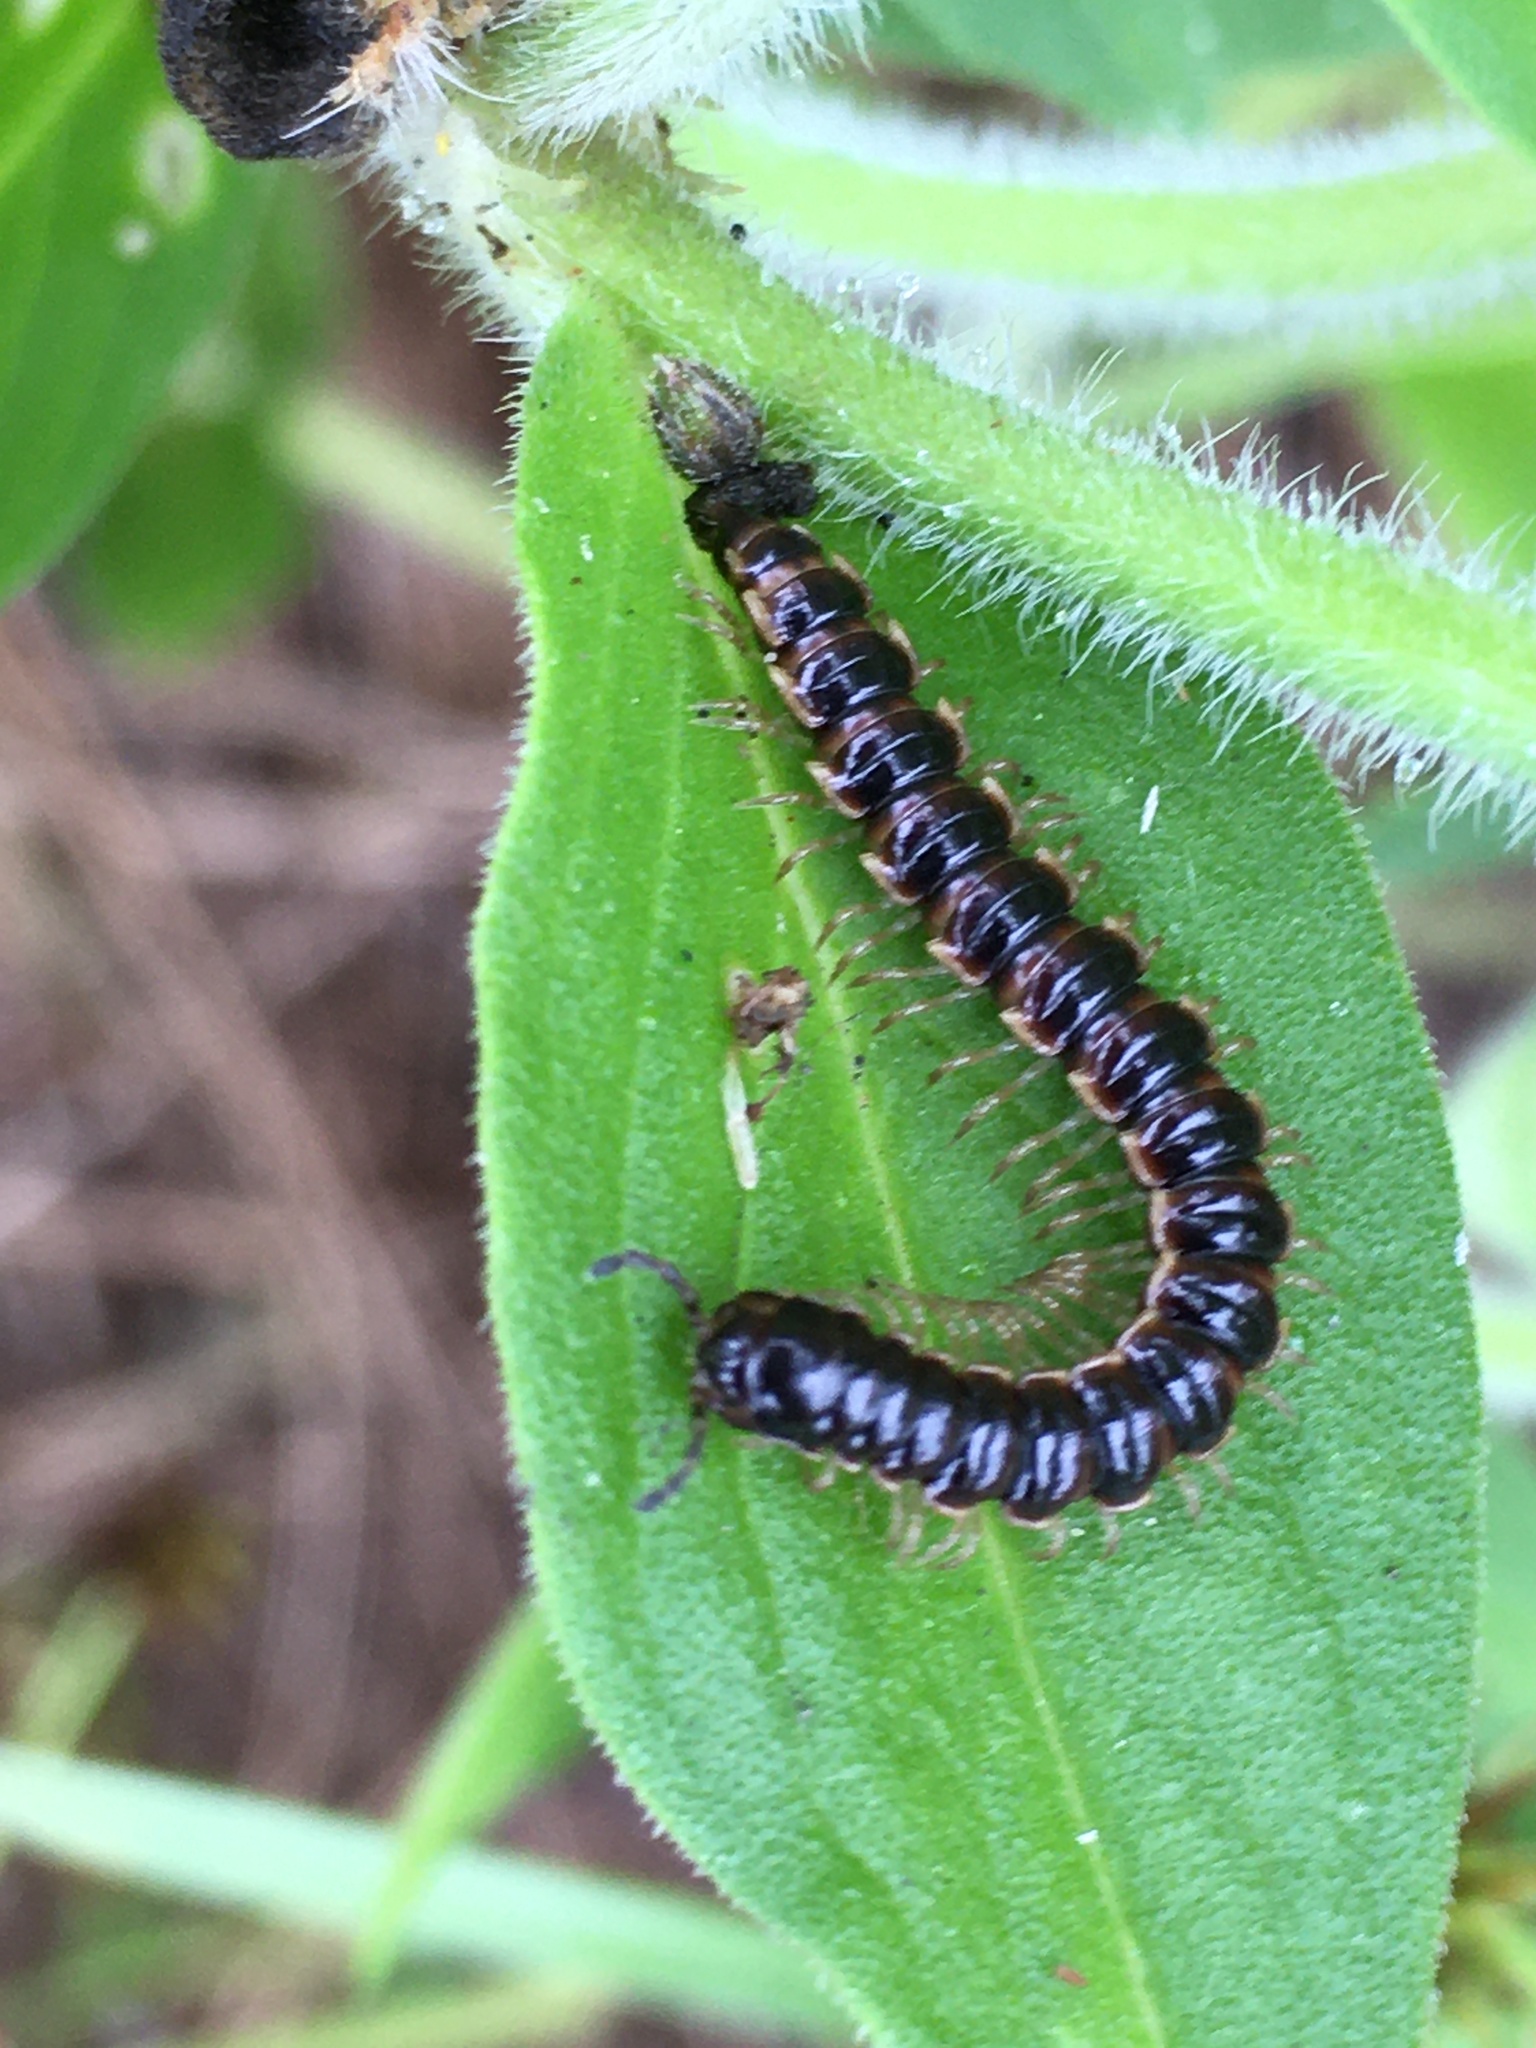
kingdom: Animalia
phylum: Arthropoda
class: Diplopoda
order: Polydesmida
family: Paradoxosomatidae
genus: Oxidus
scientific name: Oxidus gracilis
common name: Greenhouse millipede
